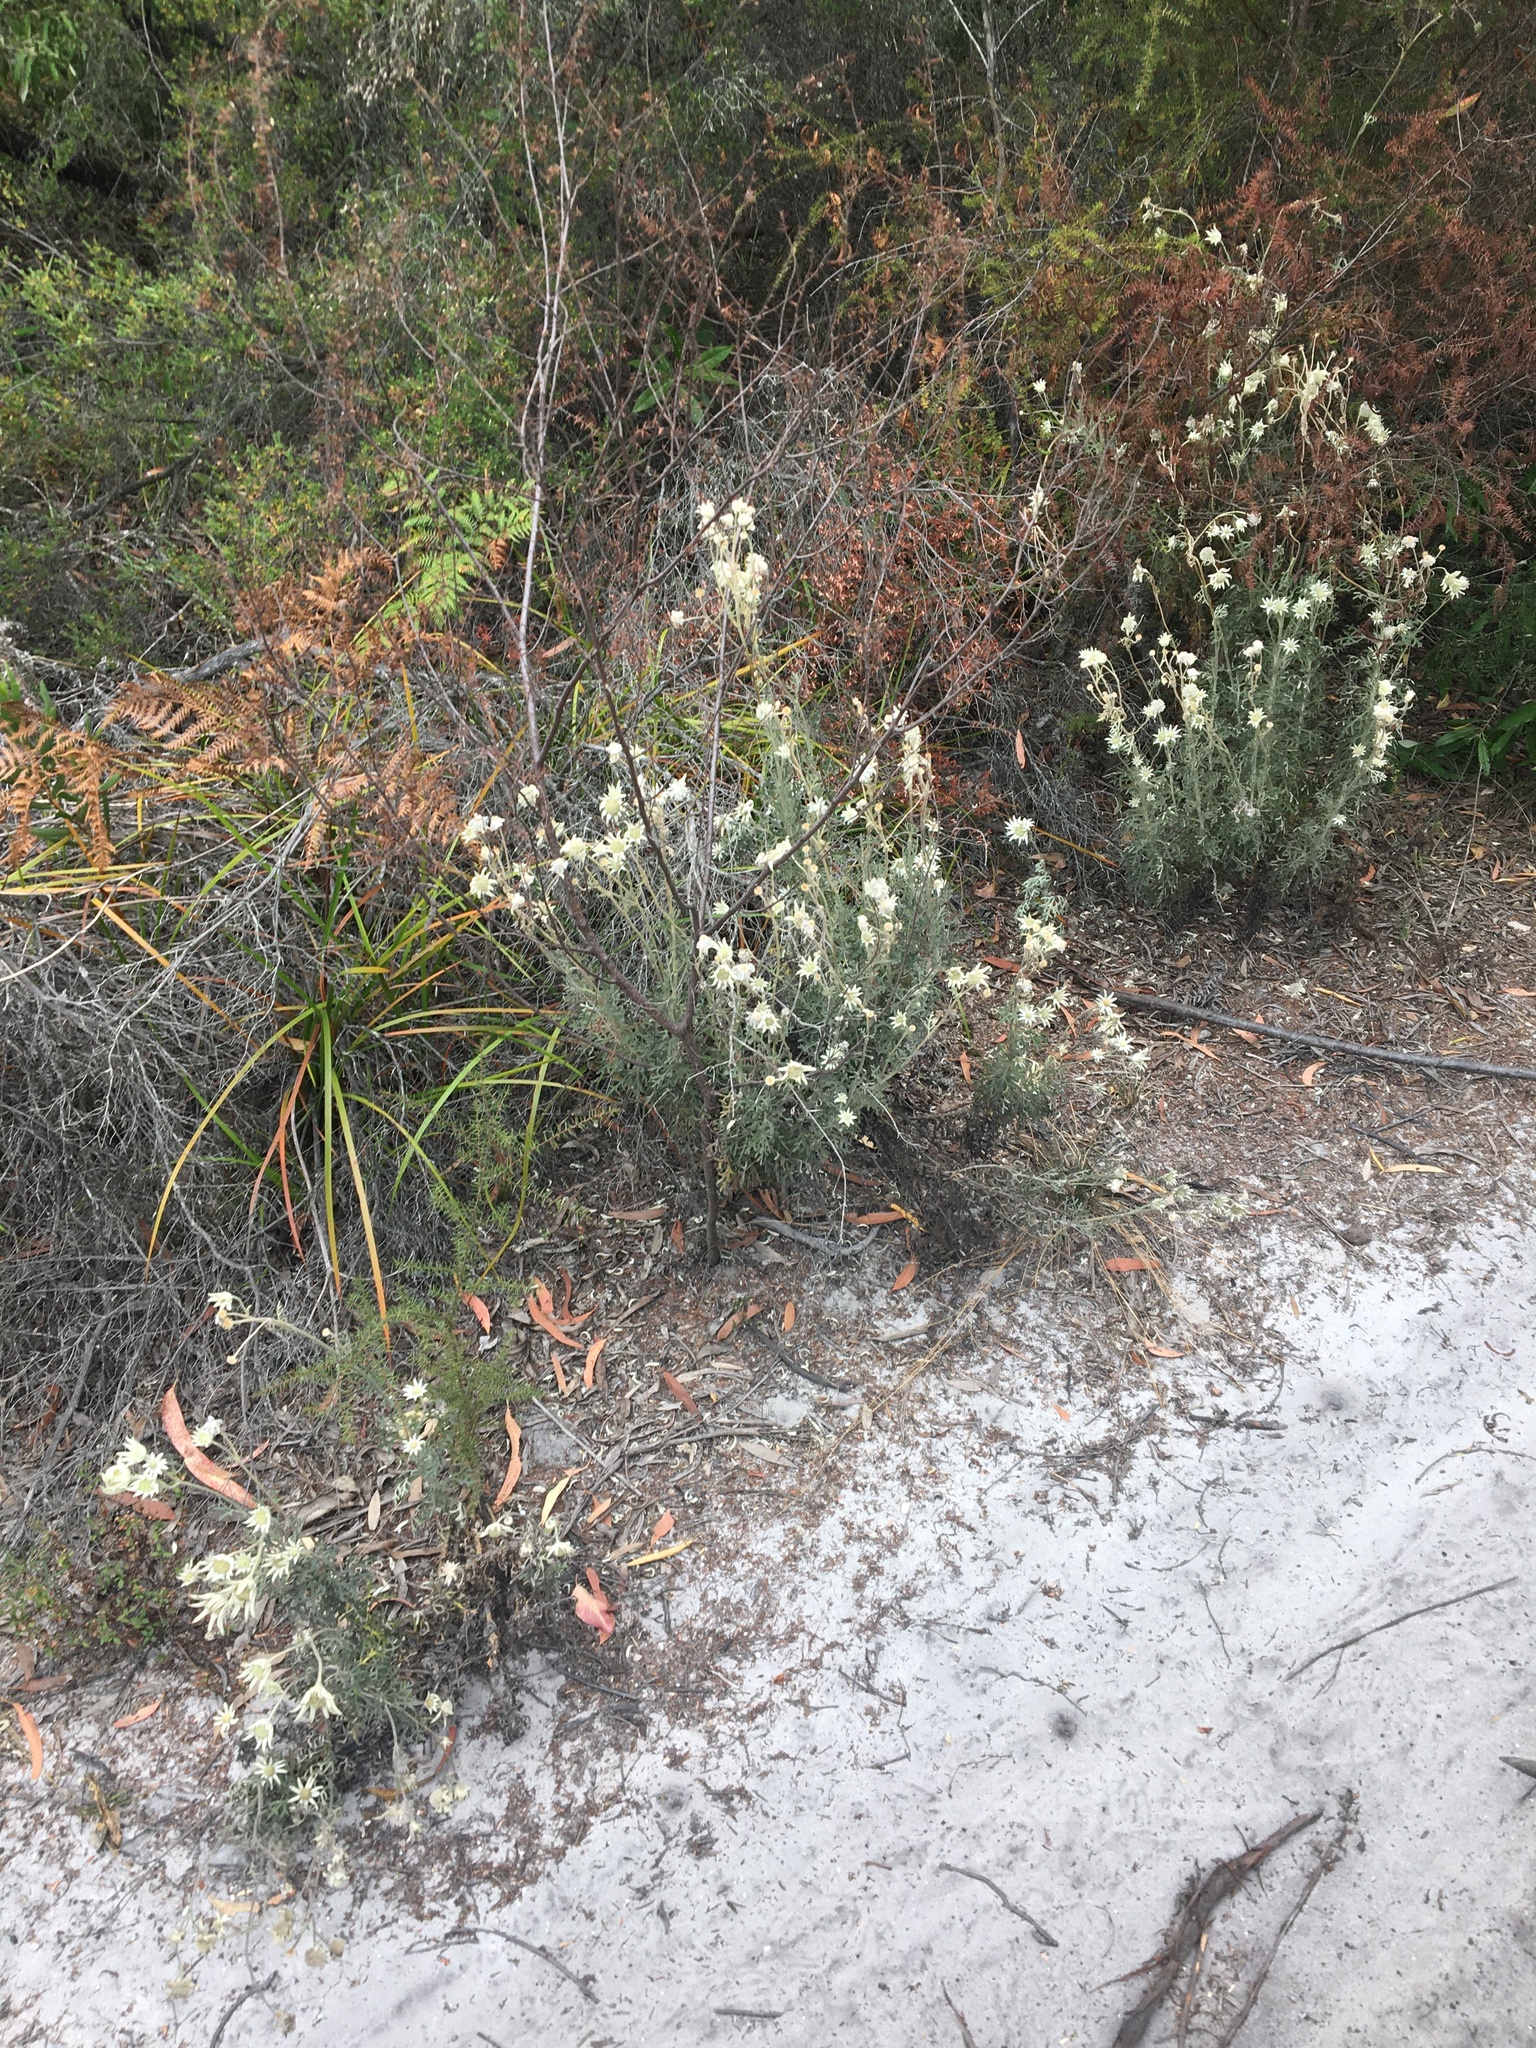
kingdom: Plantae
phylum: Tracheophyta
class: Magnoliopsida
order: Apiales
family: Apiaceae
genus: Actinotus
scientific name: Actinotus helianthi
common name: Flannel-flower
